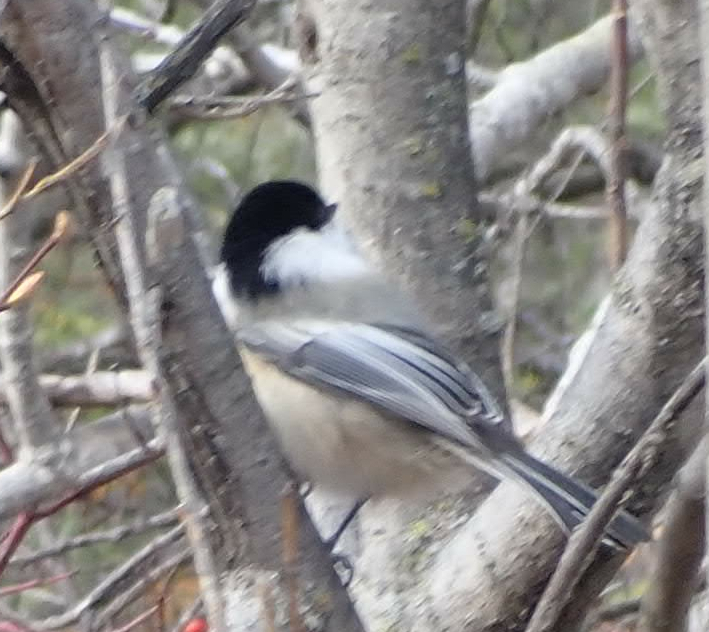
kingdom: Animalia
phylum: Chordata
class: Aves
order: Passeriformes
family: Paridae
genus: Poecile
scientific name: Poecile atricapillus
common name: Black-capped chickadee
